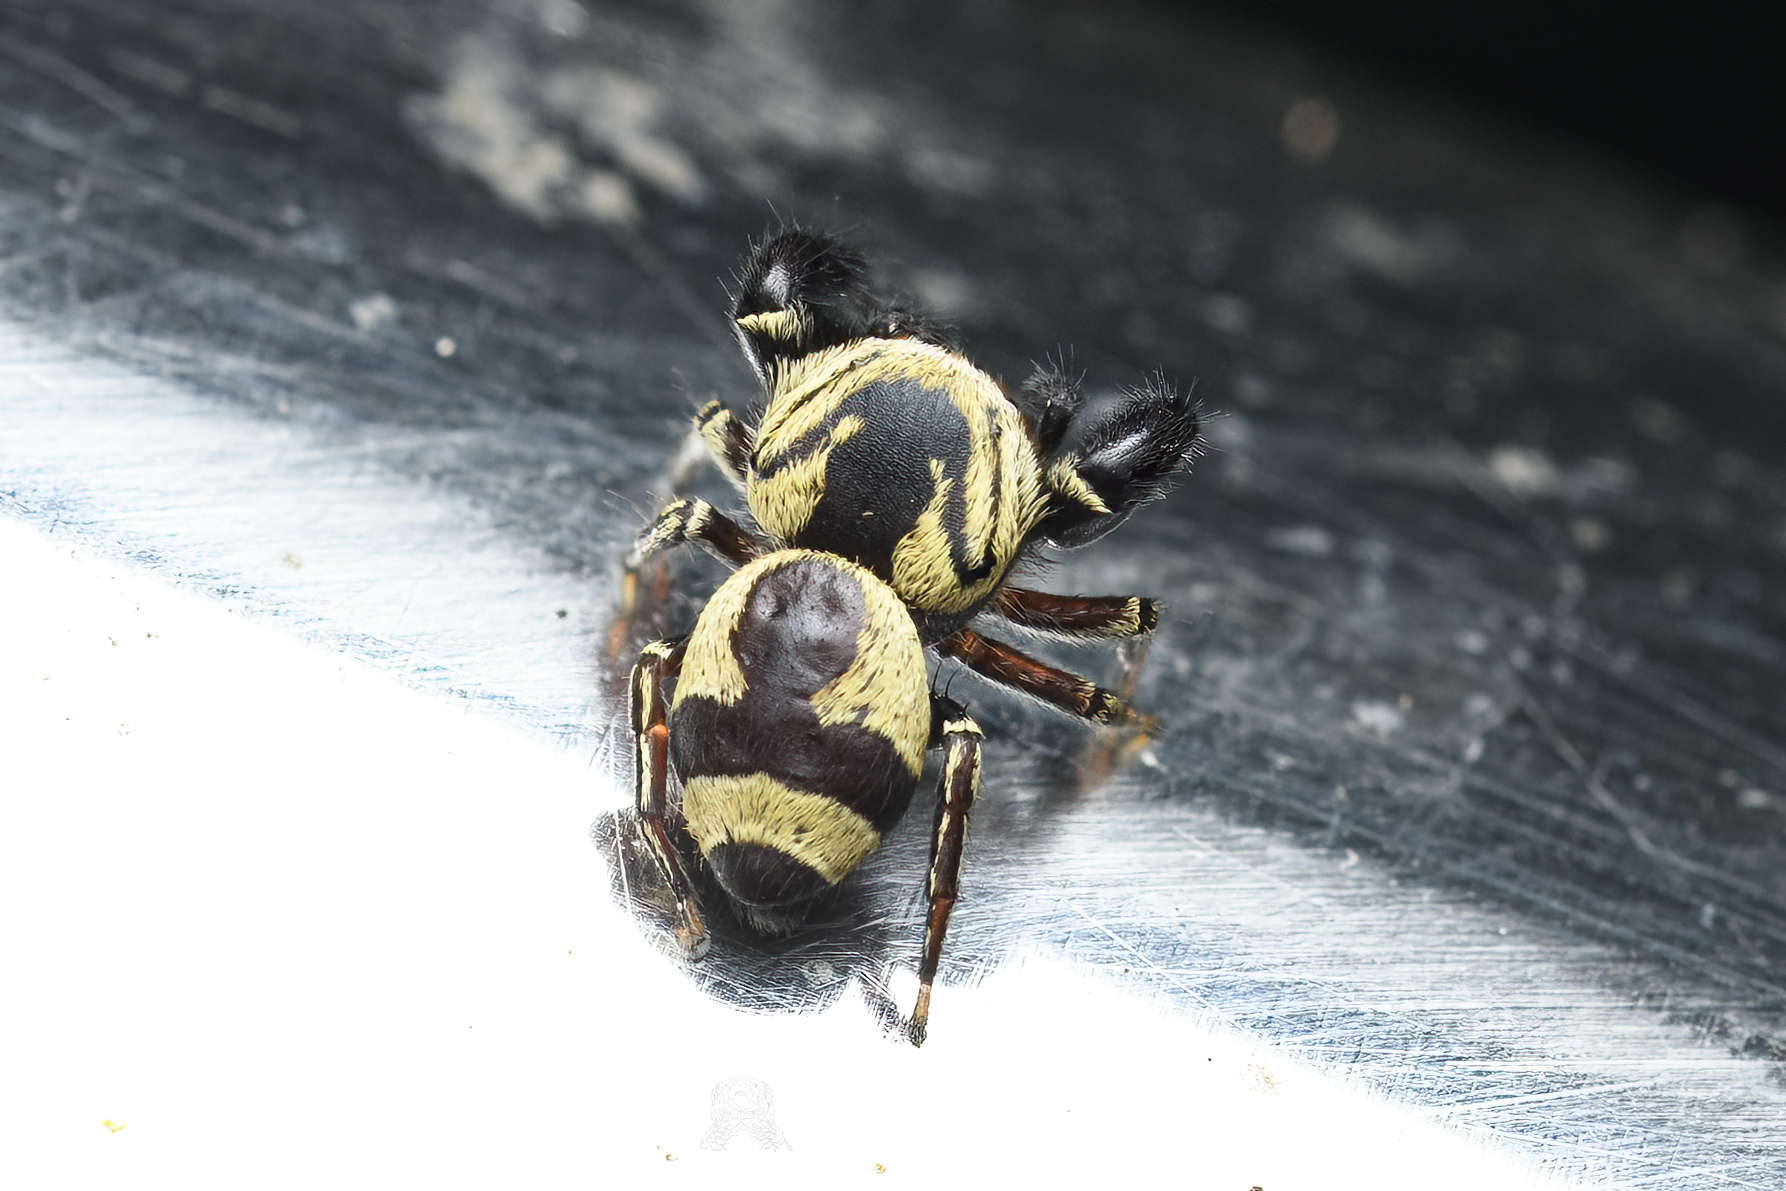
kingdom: Animalia
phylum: Arthropoda
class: Arachnida
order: Araneae
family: Salticidae
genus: Rhene
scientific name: Rhene flavicomans
